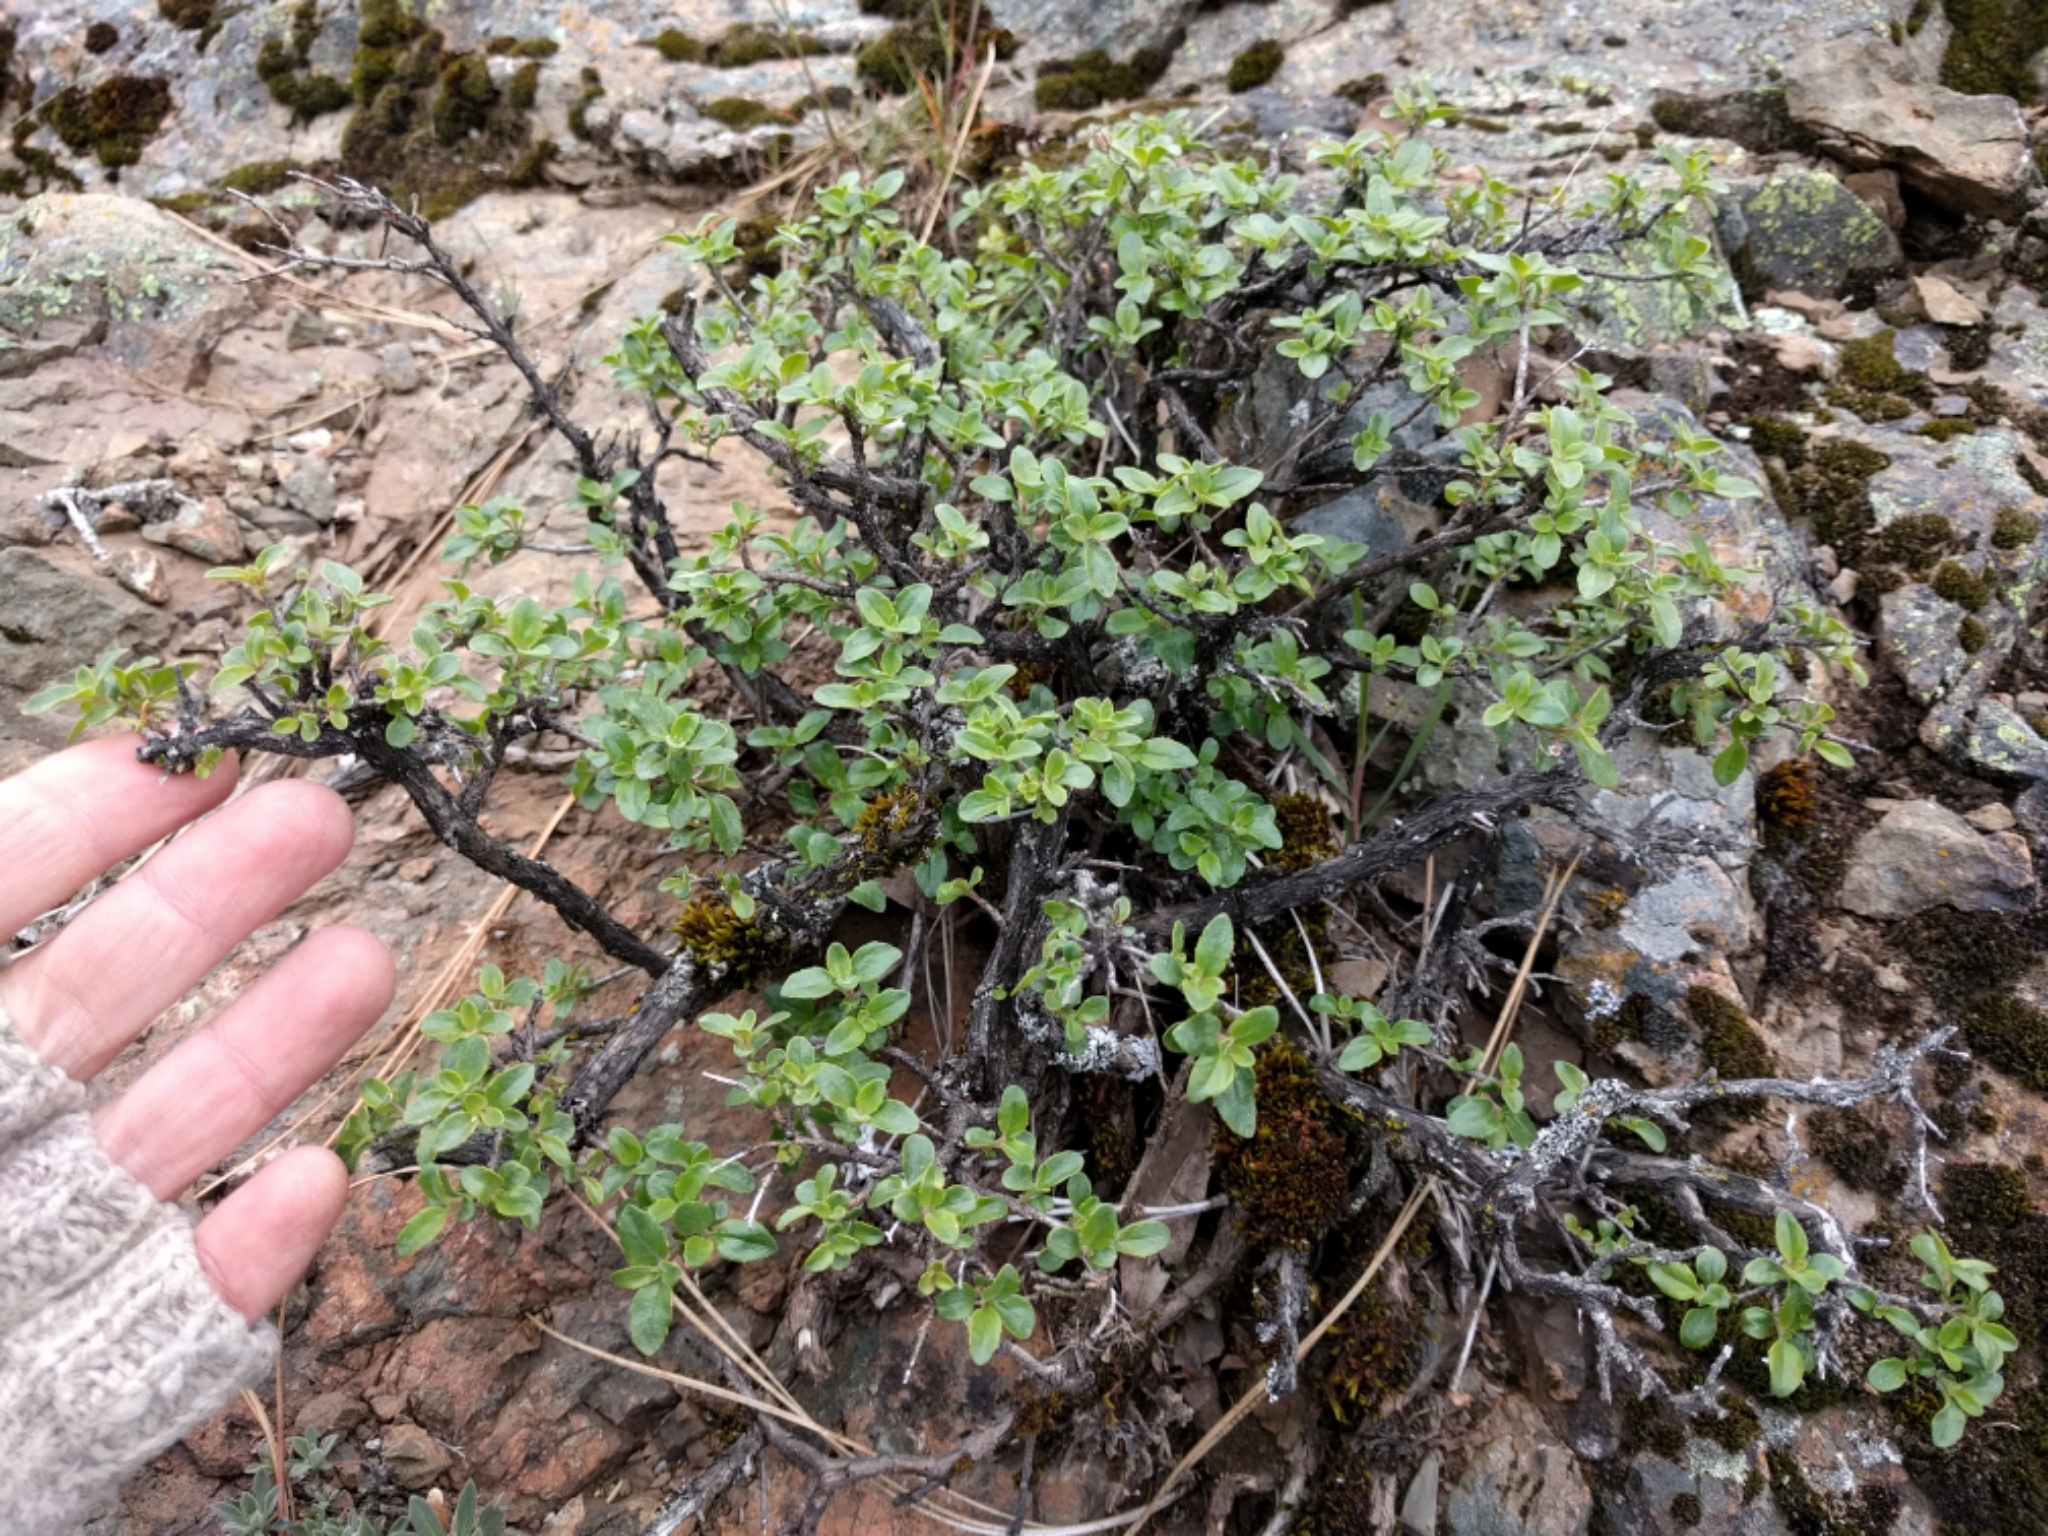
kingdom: Plantae
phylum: Tracheophyta
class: Magnoliopsida
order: Lamiales
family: Plantaginaceae
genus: Keckiella
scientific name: Keckiella corymbosa
